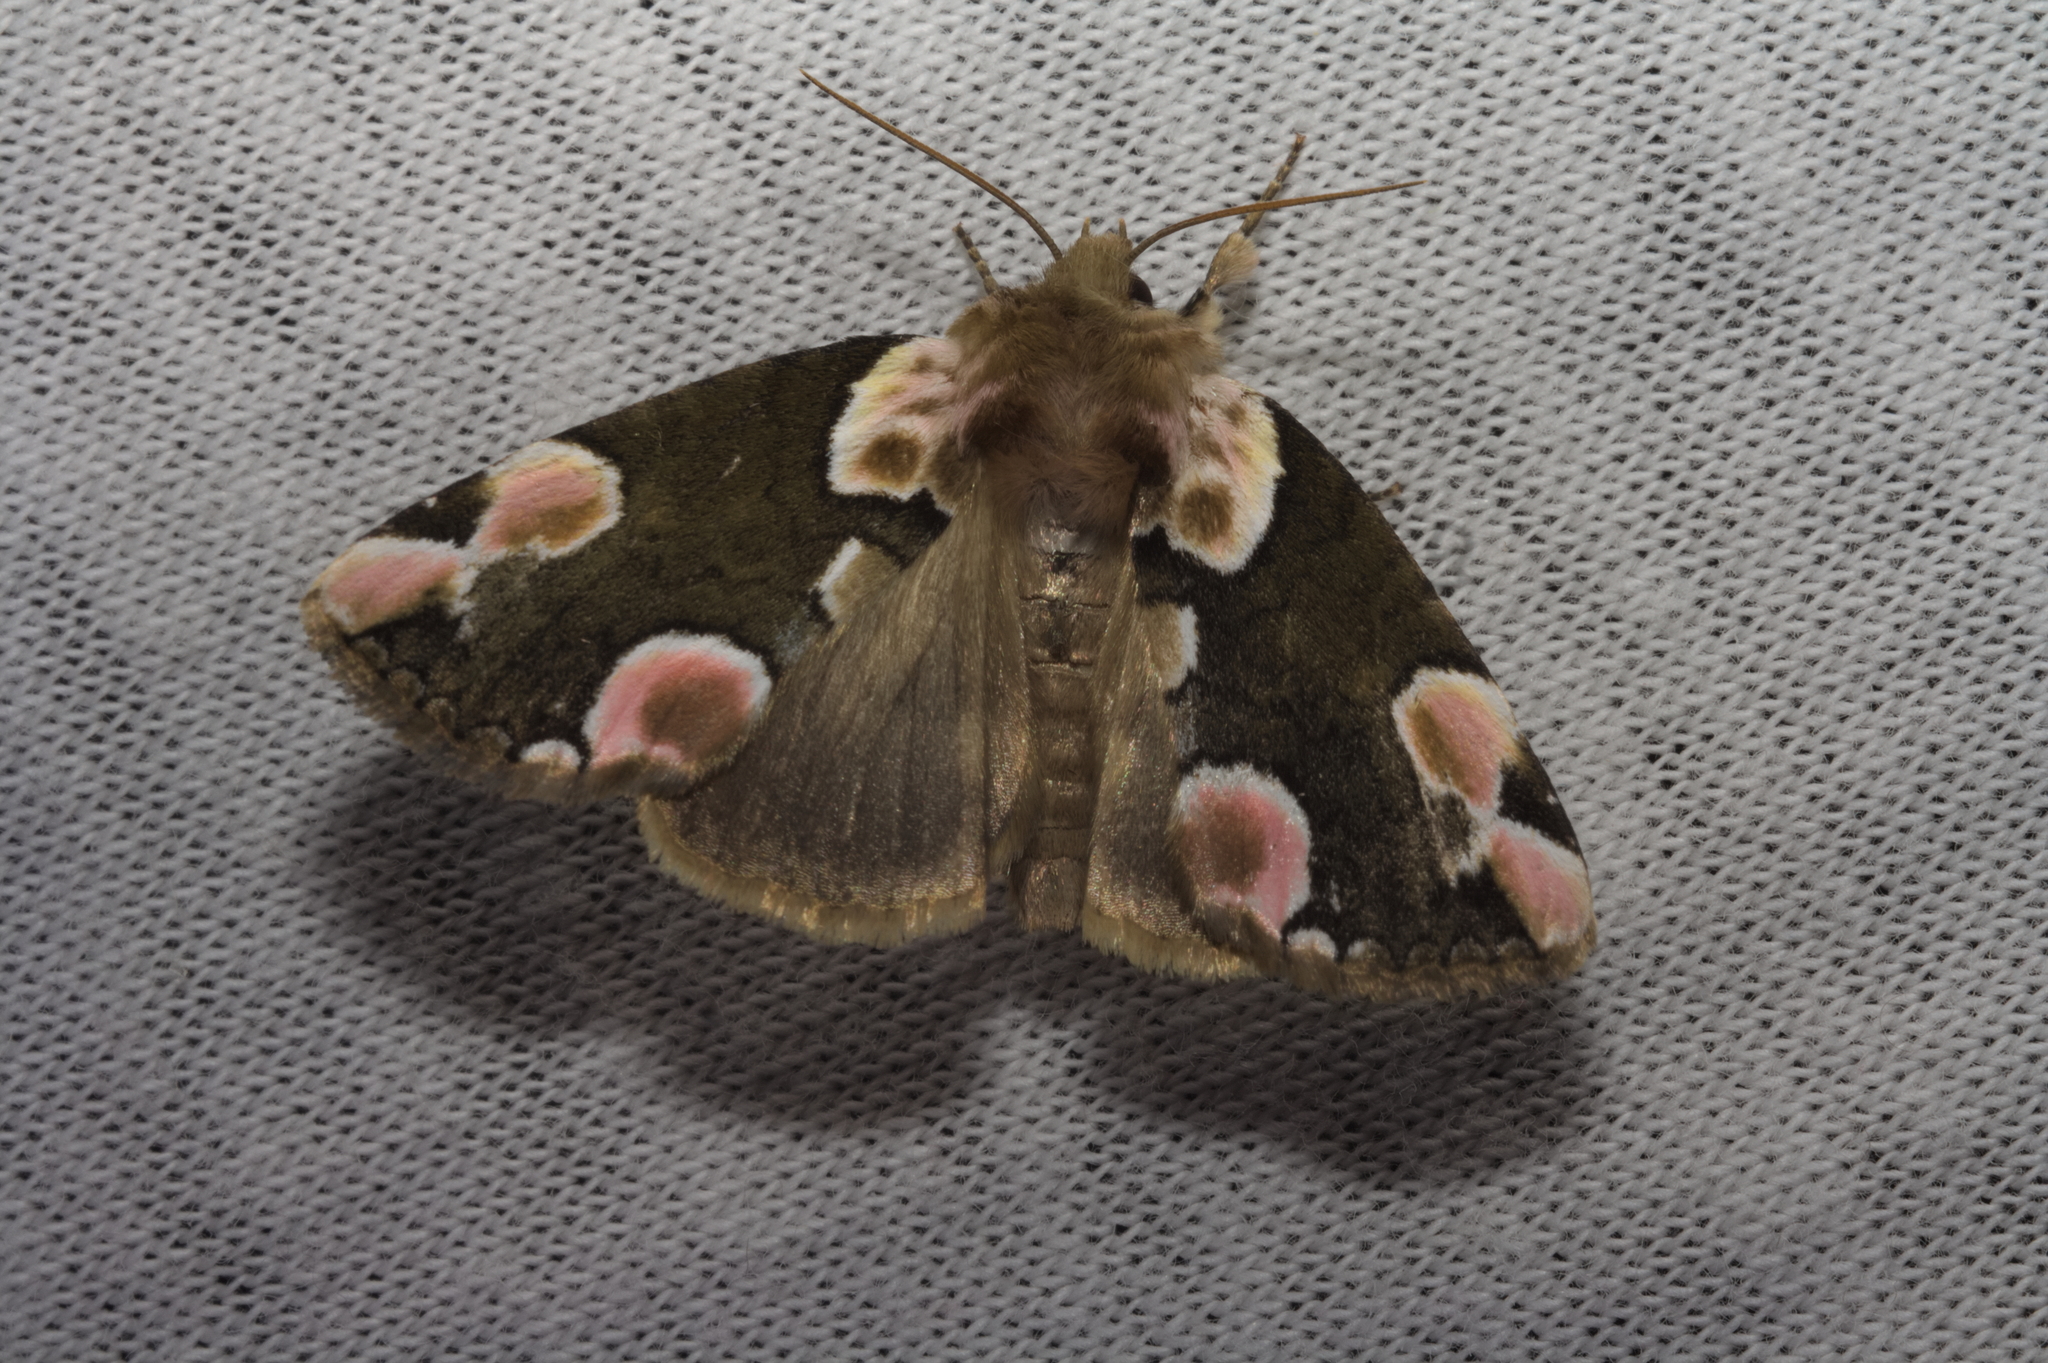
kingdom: Animalia
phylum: Arthropoda
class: Insecta
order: Lepidoptera
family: Drepanidae
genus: Thyatira
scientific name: Thyatira batis
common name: Peach blossom
